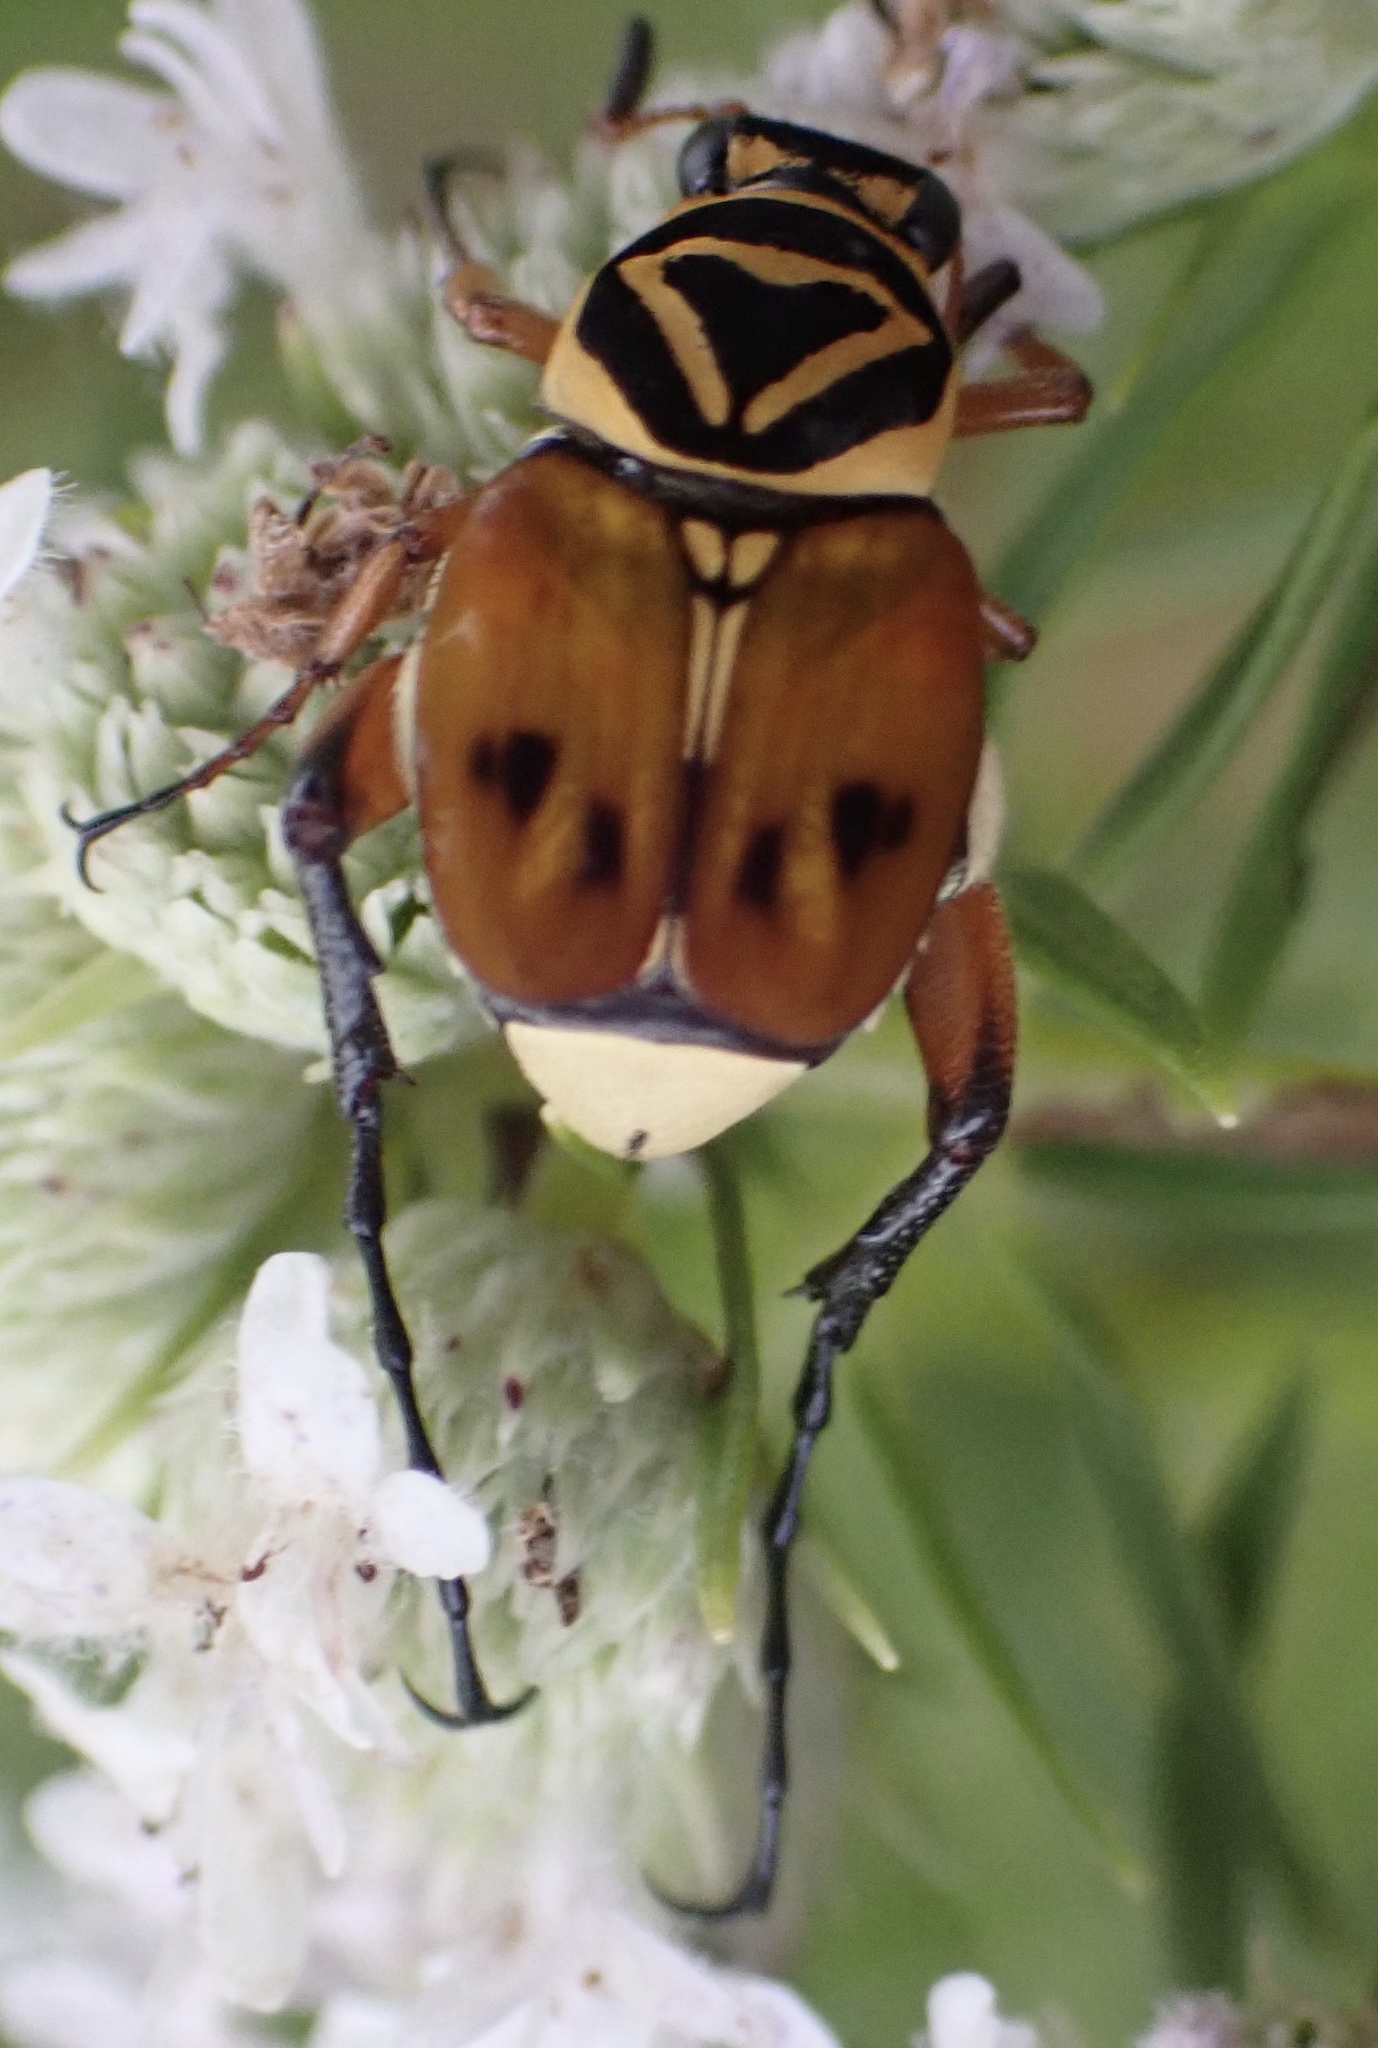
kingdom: Animalia
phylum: Arthropoda
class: Insecta
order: Coleoptera
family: Scarabaeidae
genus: Trigonopeltastes
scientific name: Trigonopeltastes delta
